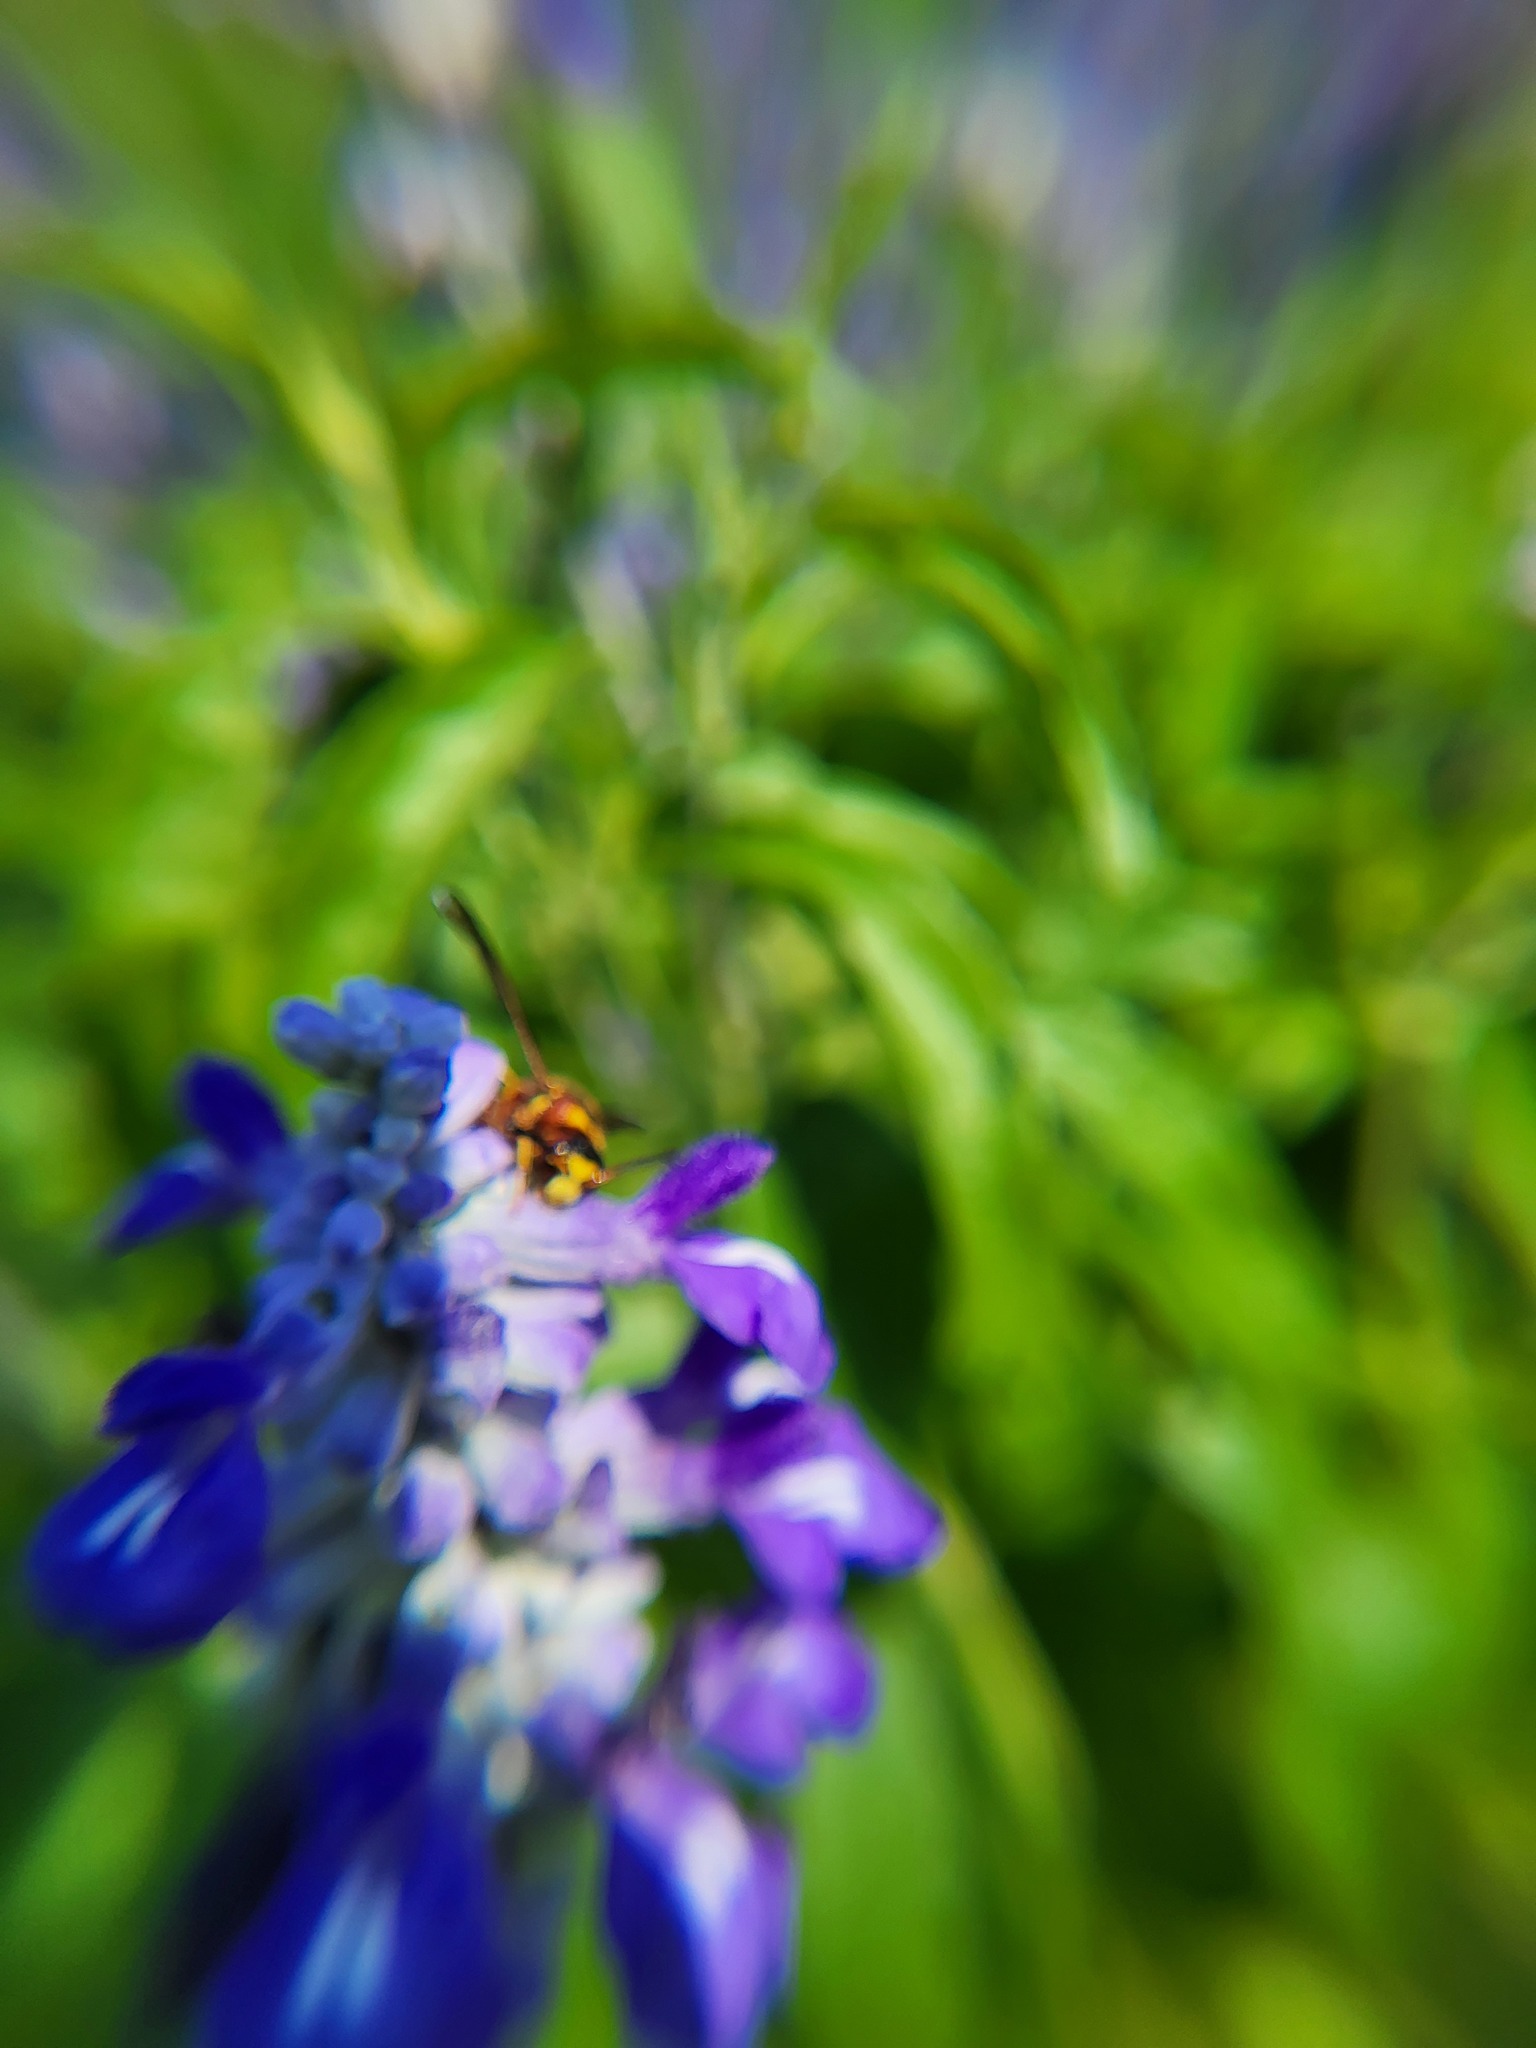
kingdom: Animalia
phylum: Arthropoda
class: Insecta
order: Hymenoptera
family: Eumenidae
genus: Euodynerus
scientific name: Euodynerus
